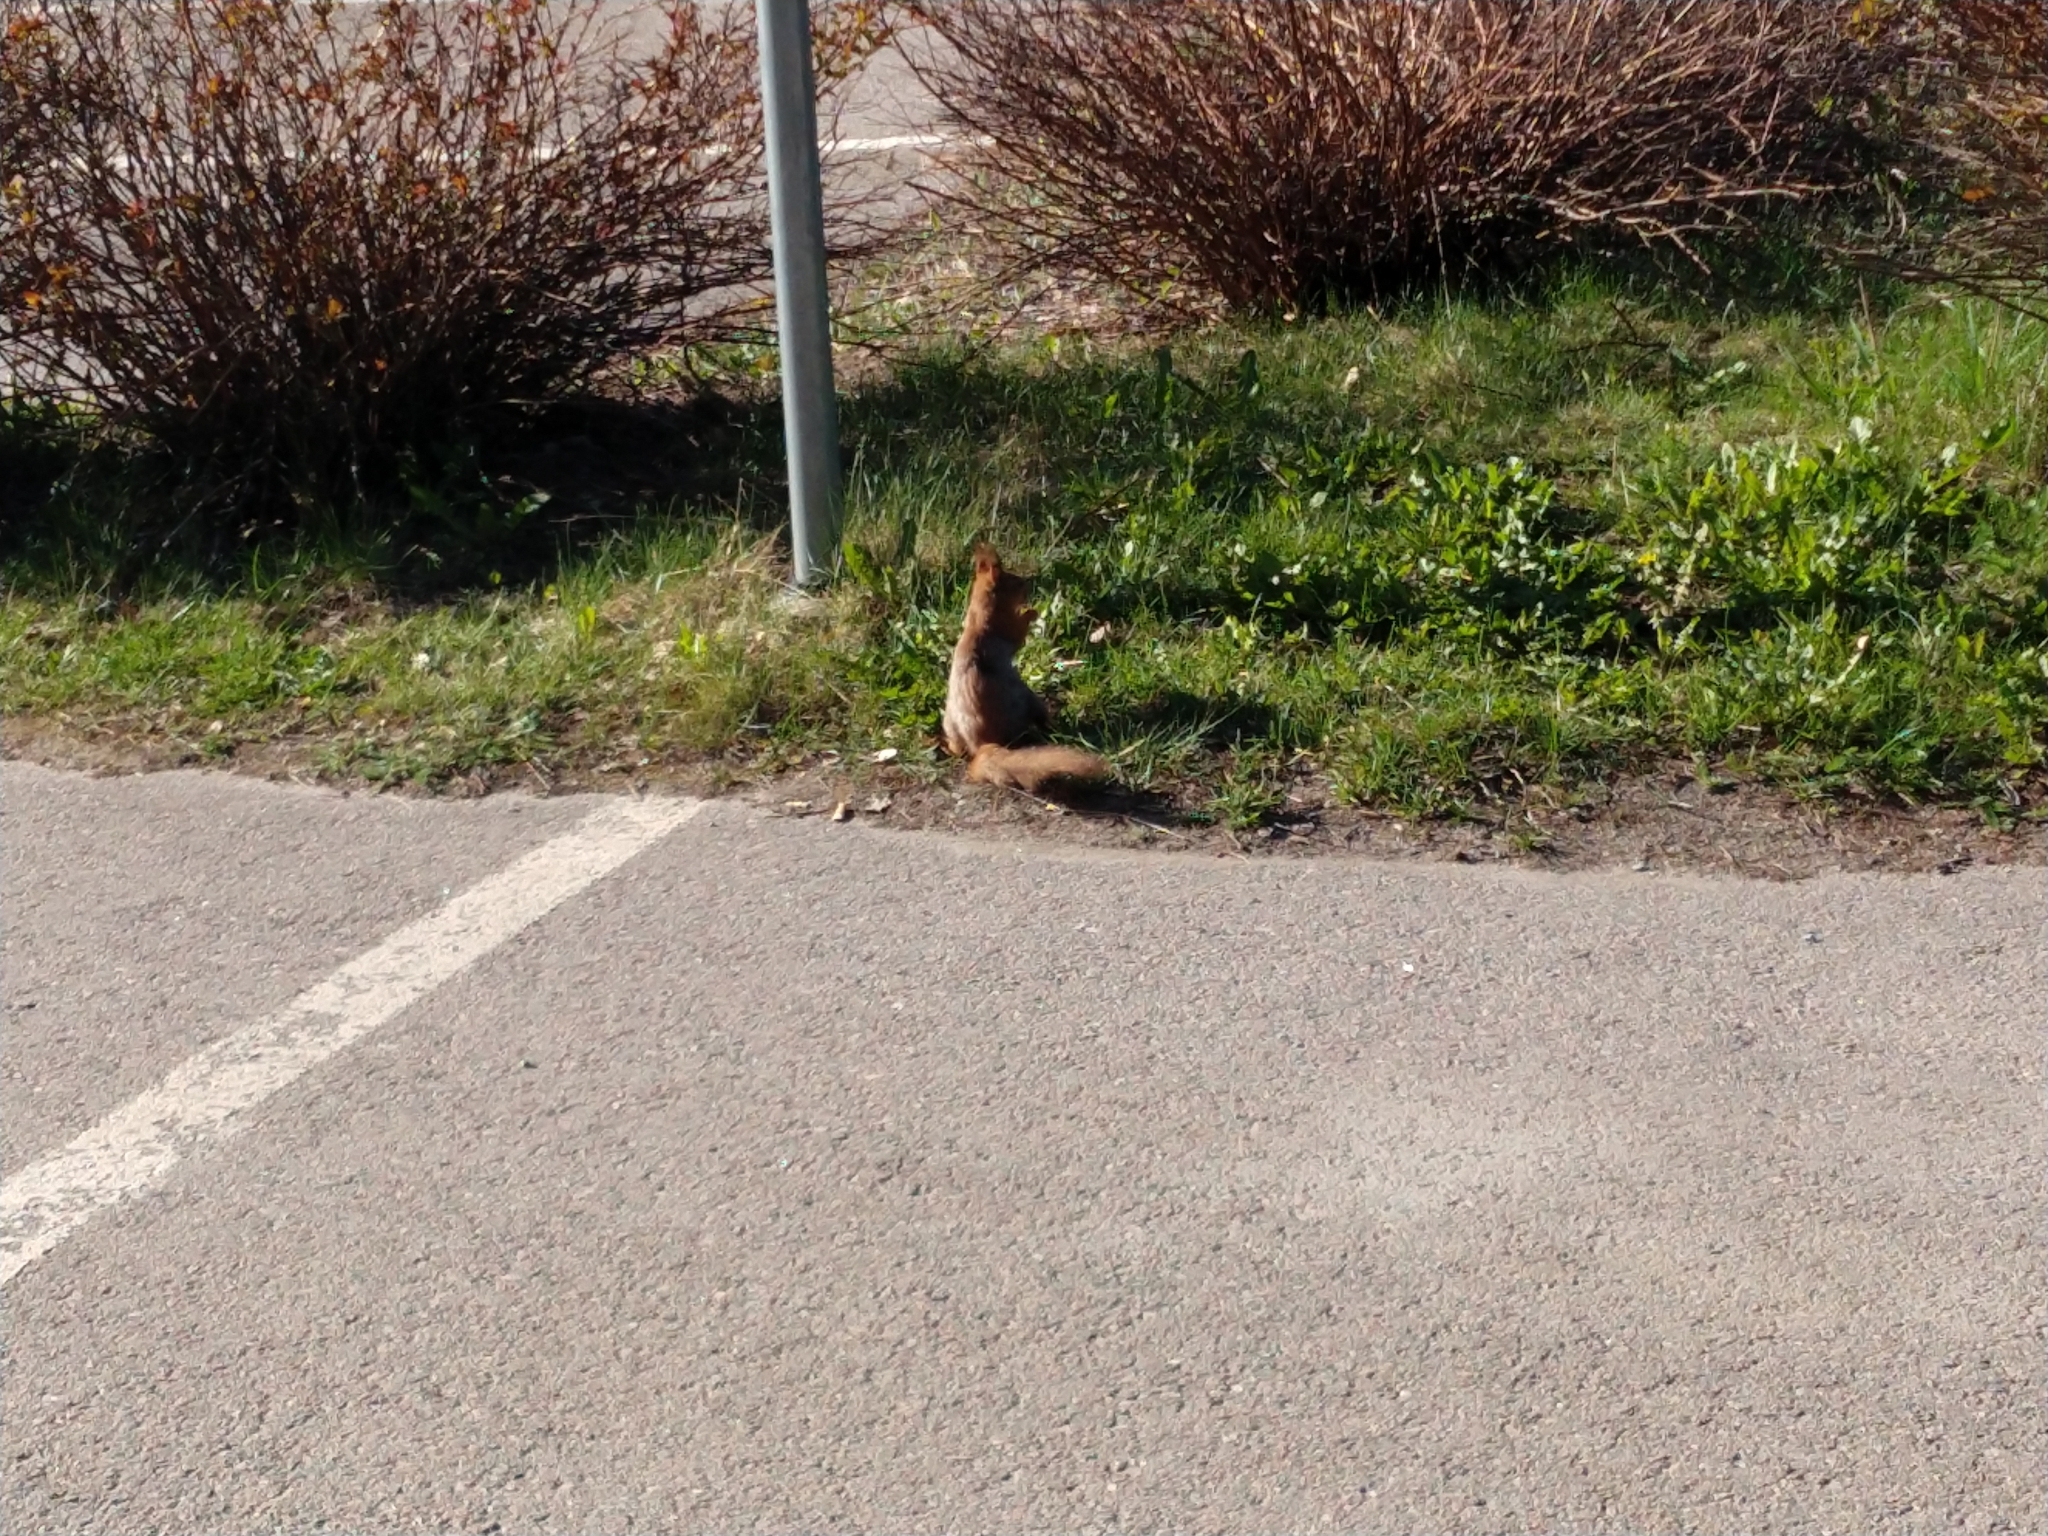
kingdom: Animalia
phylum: Chordata
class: Mammalia
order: Rodentia
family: Sciuridae
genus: Sciurus
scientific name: Sciurus vulgaris
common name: Eurasian red squirrel
